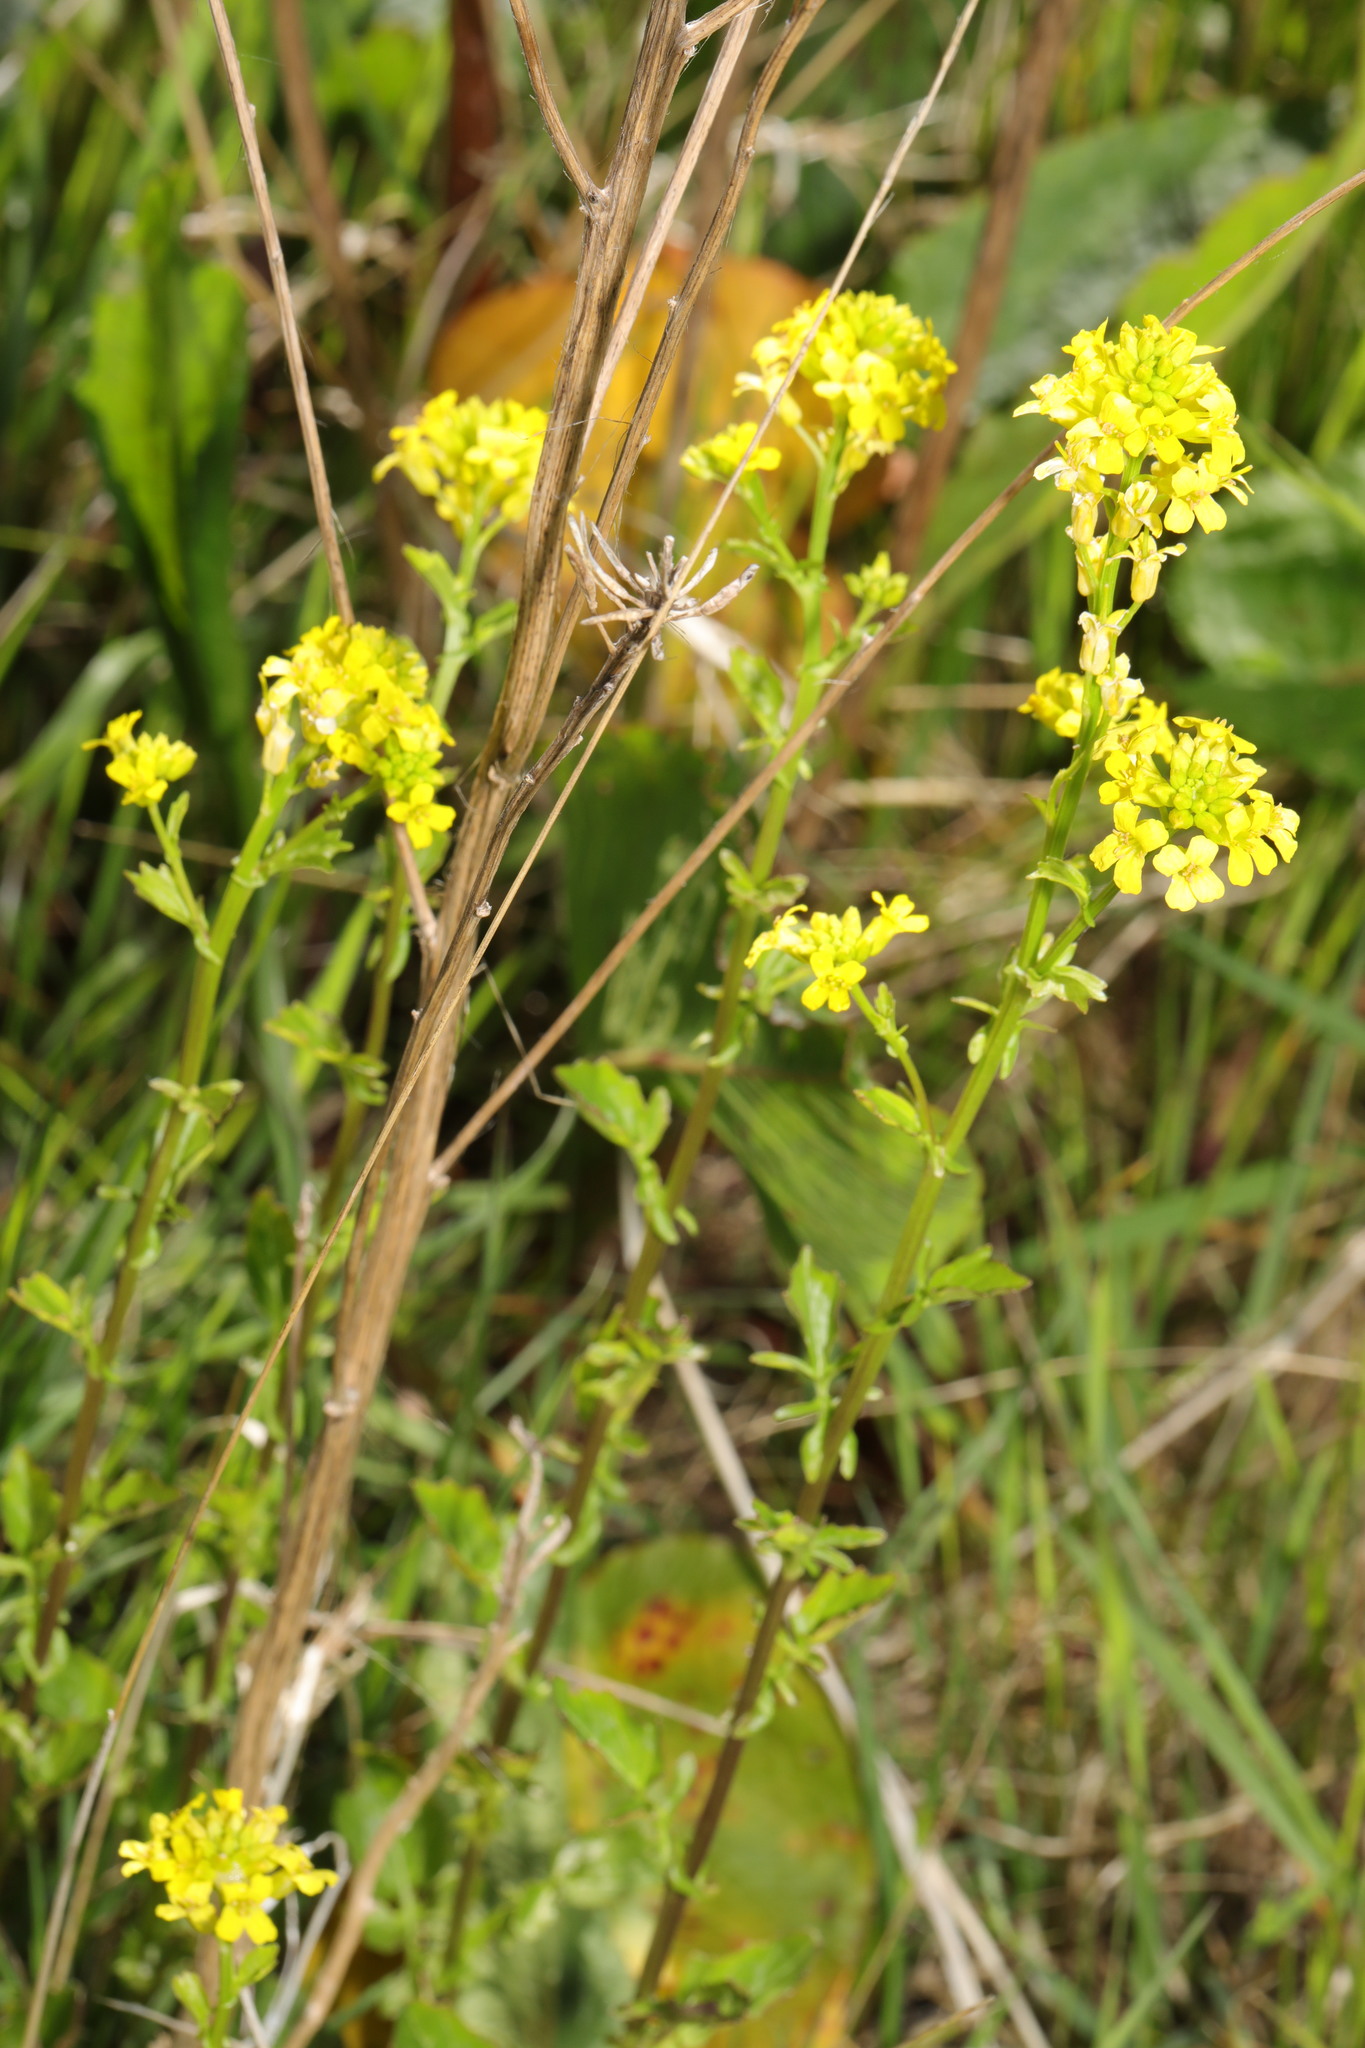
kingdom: Plantae
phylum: Tracheophyta
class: Magnoliopsida
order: Brassicales
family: Brassicaceae
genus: Barbarea
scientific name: Barbarea vulgaris
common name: Cressy-greens
